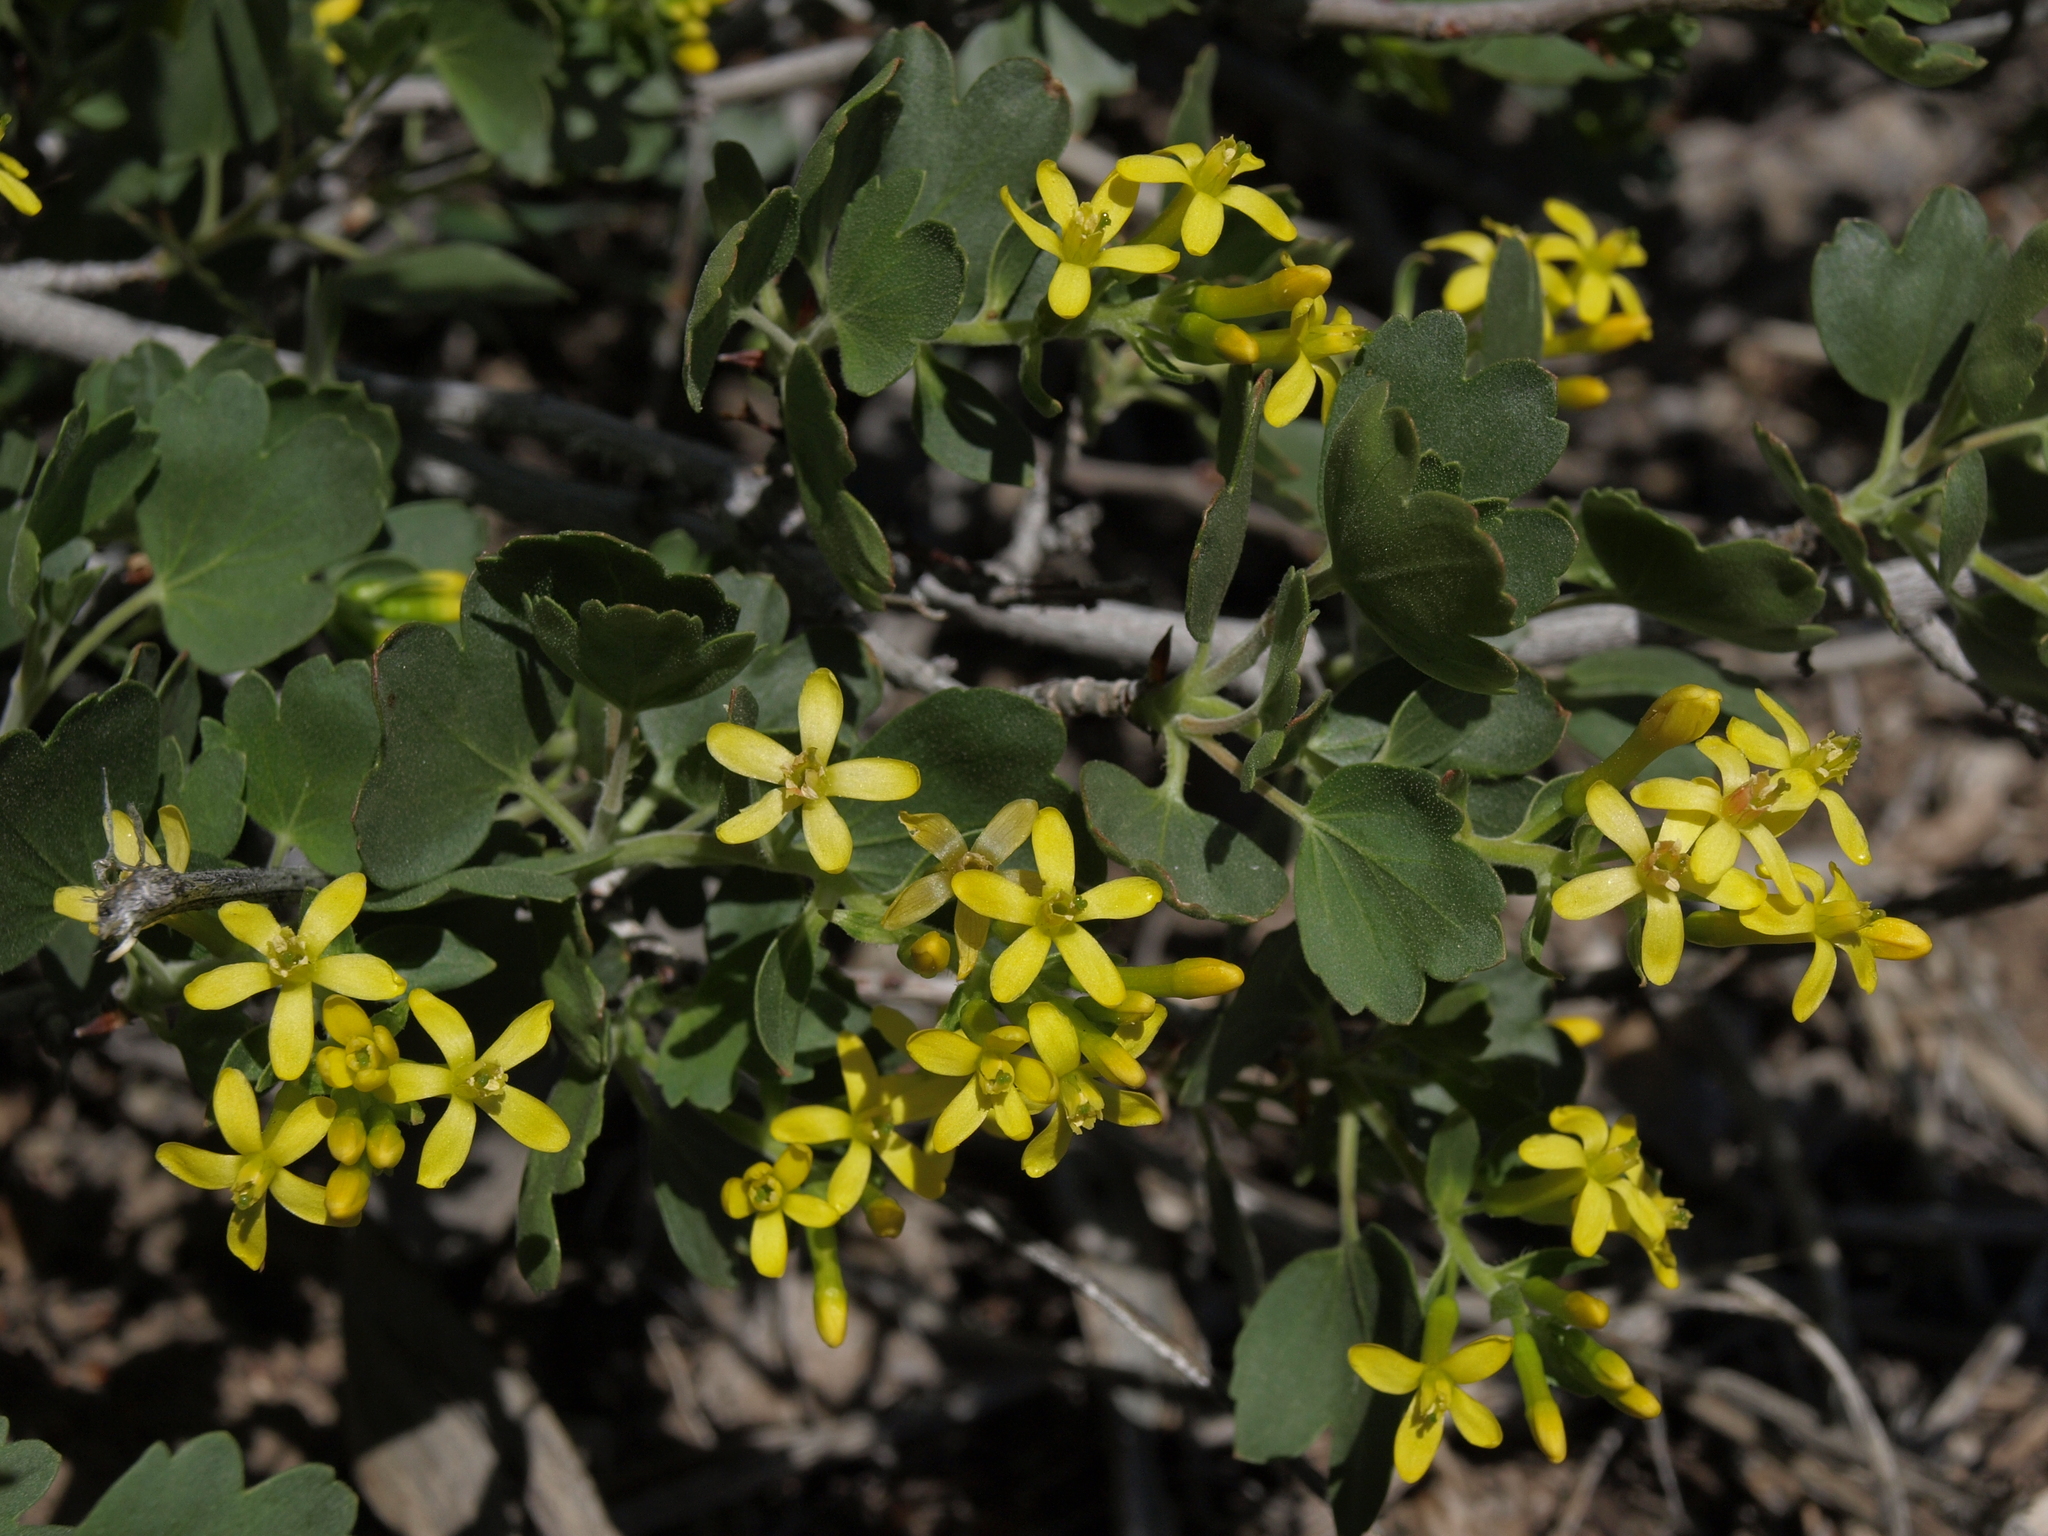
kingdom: Plantae
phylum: Tracheophyta
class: Magnoliopsida
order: Saxifragales
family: Grossulariaceae
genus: Ribes
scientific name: Ribes aureum
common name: Golden currant
